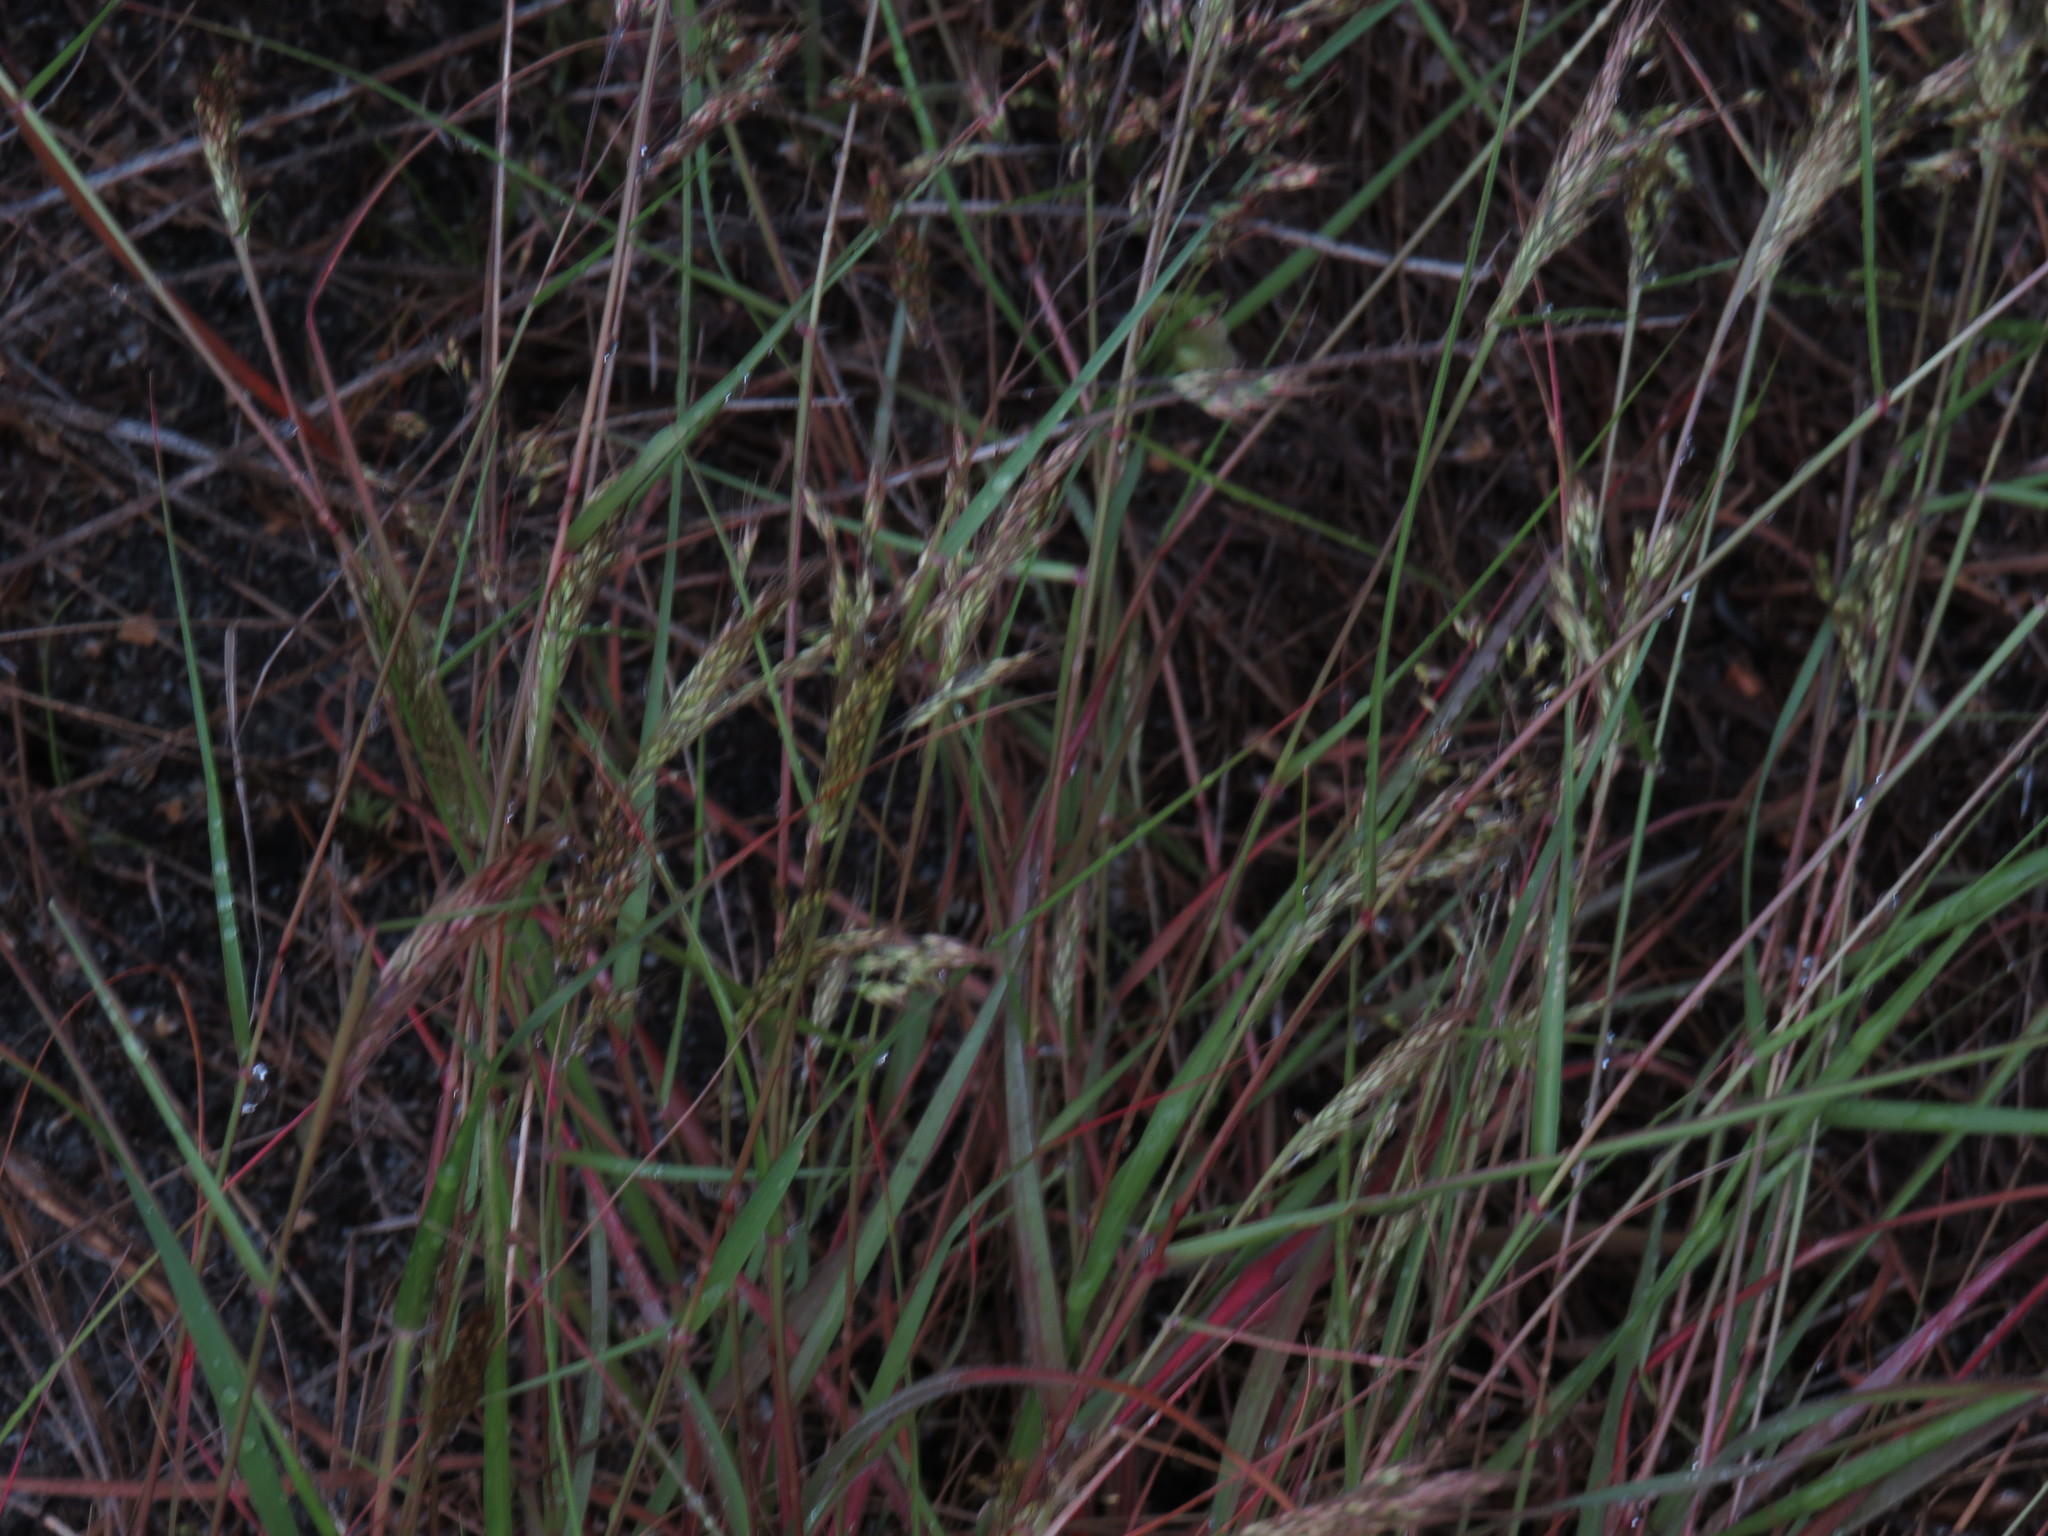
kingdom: Plantae
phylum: Tracheophyta
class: Liliopsida
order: Poales
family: Poaceae
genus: Pentameris
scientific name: Pentameris airoides
